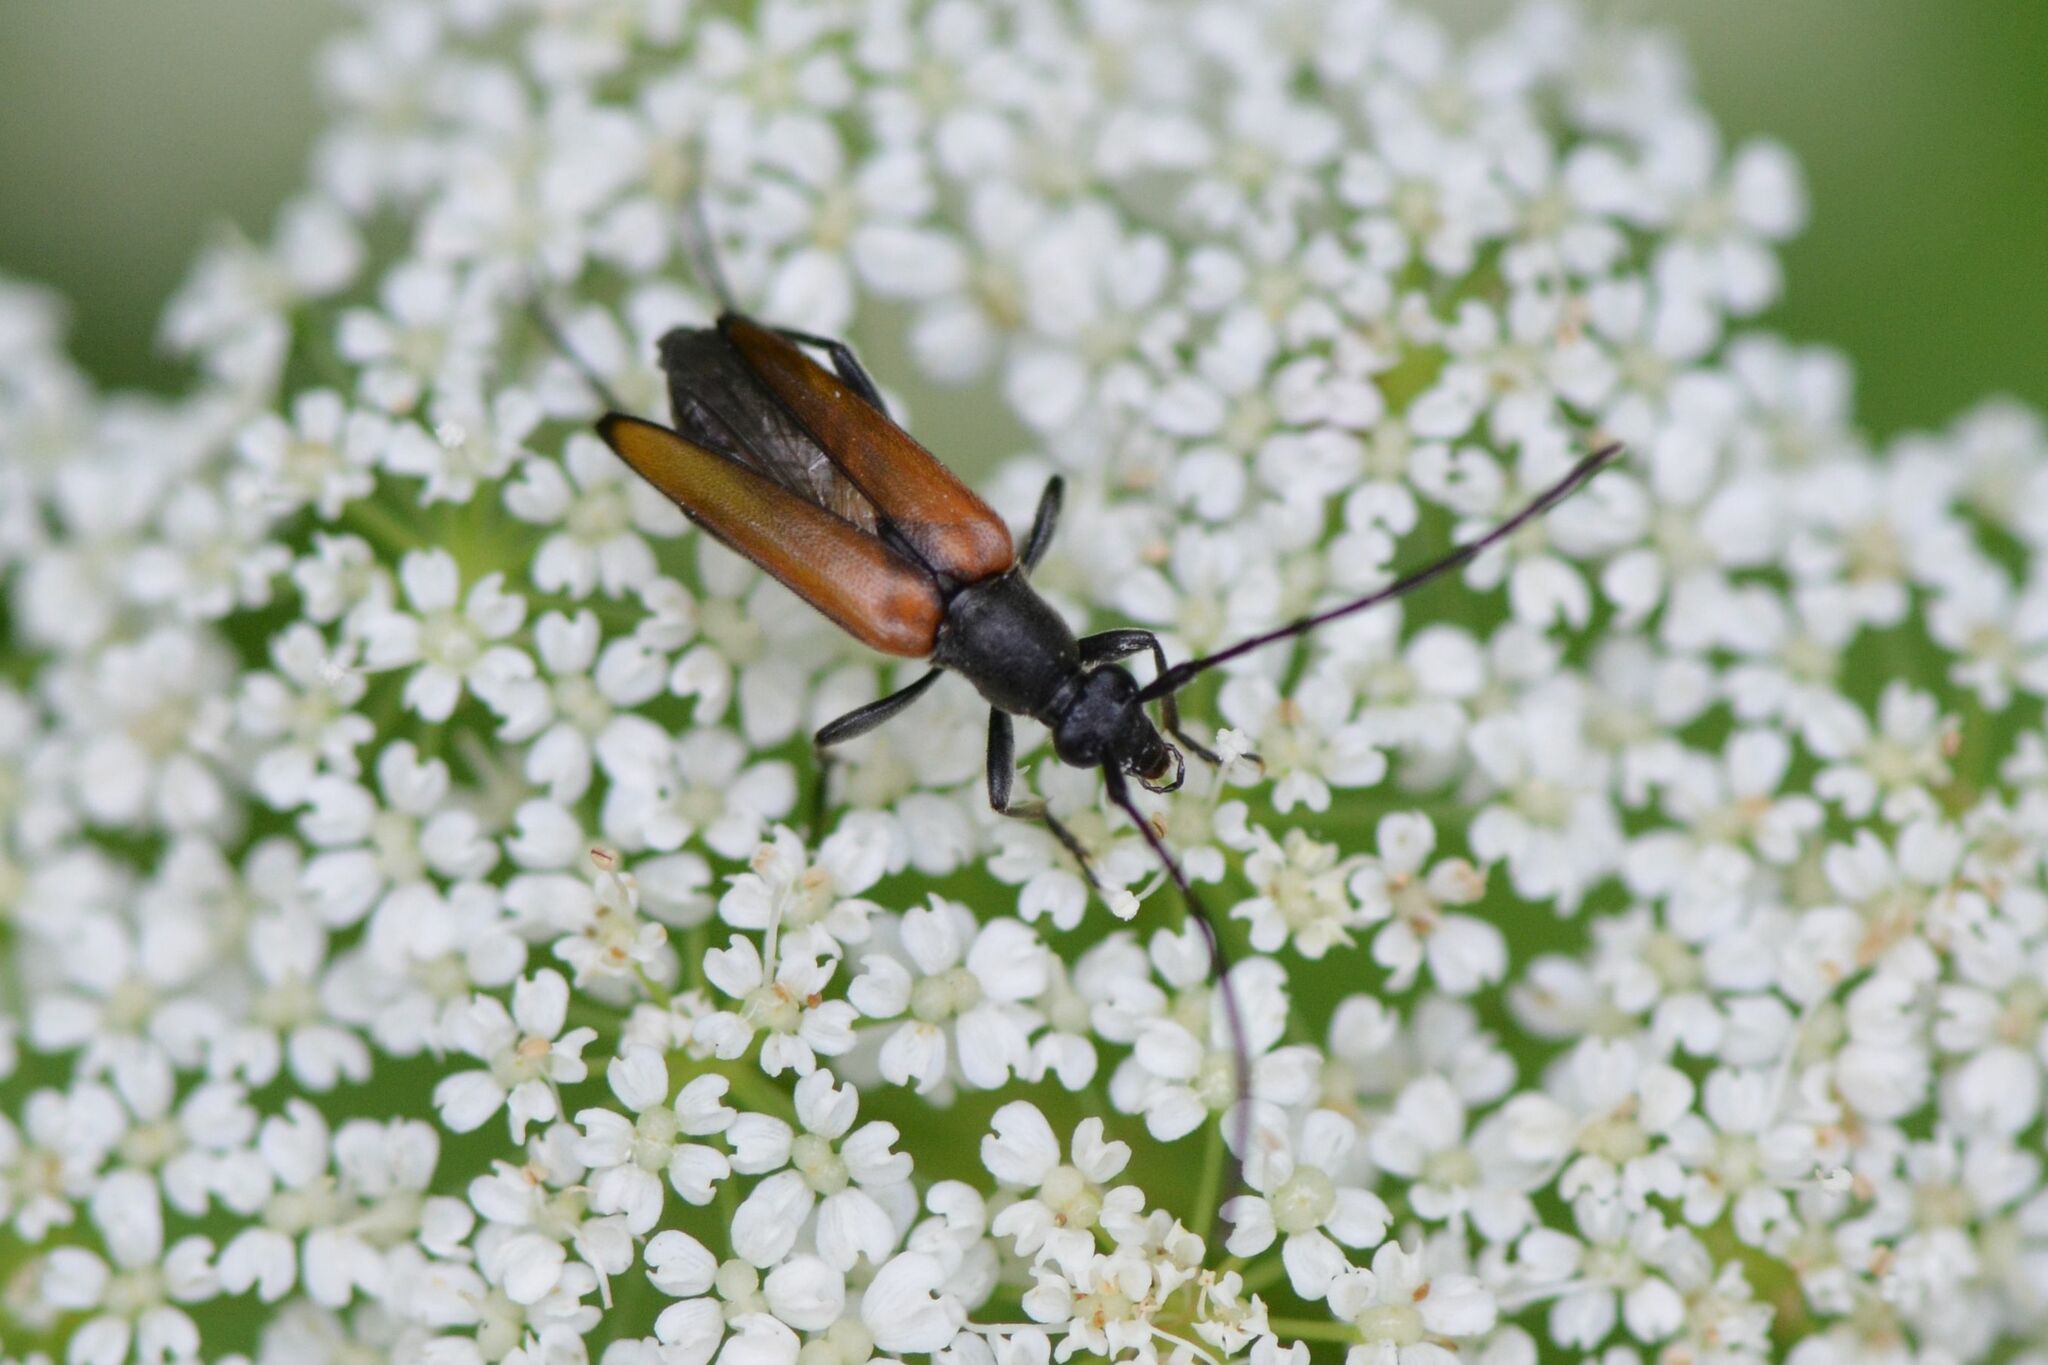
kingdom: Animalia
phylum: Arthropoda
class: Insecta
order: Coleoptera
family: Cerambycidae
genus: Stenurella
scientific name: Stenurella melanura
